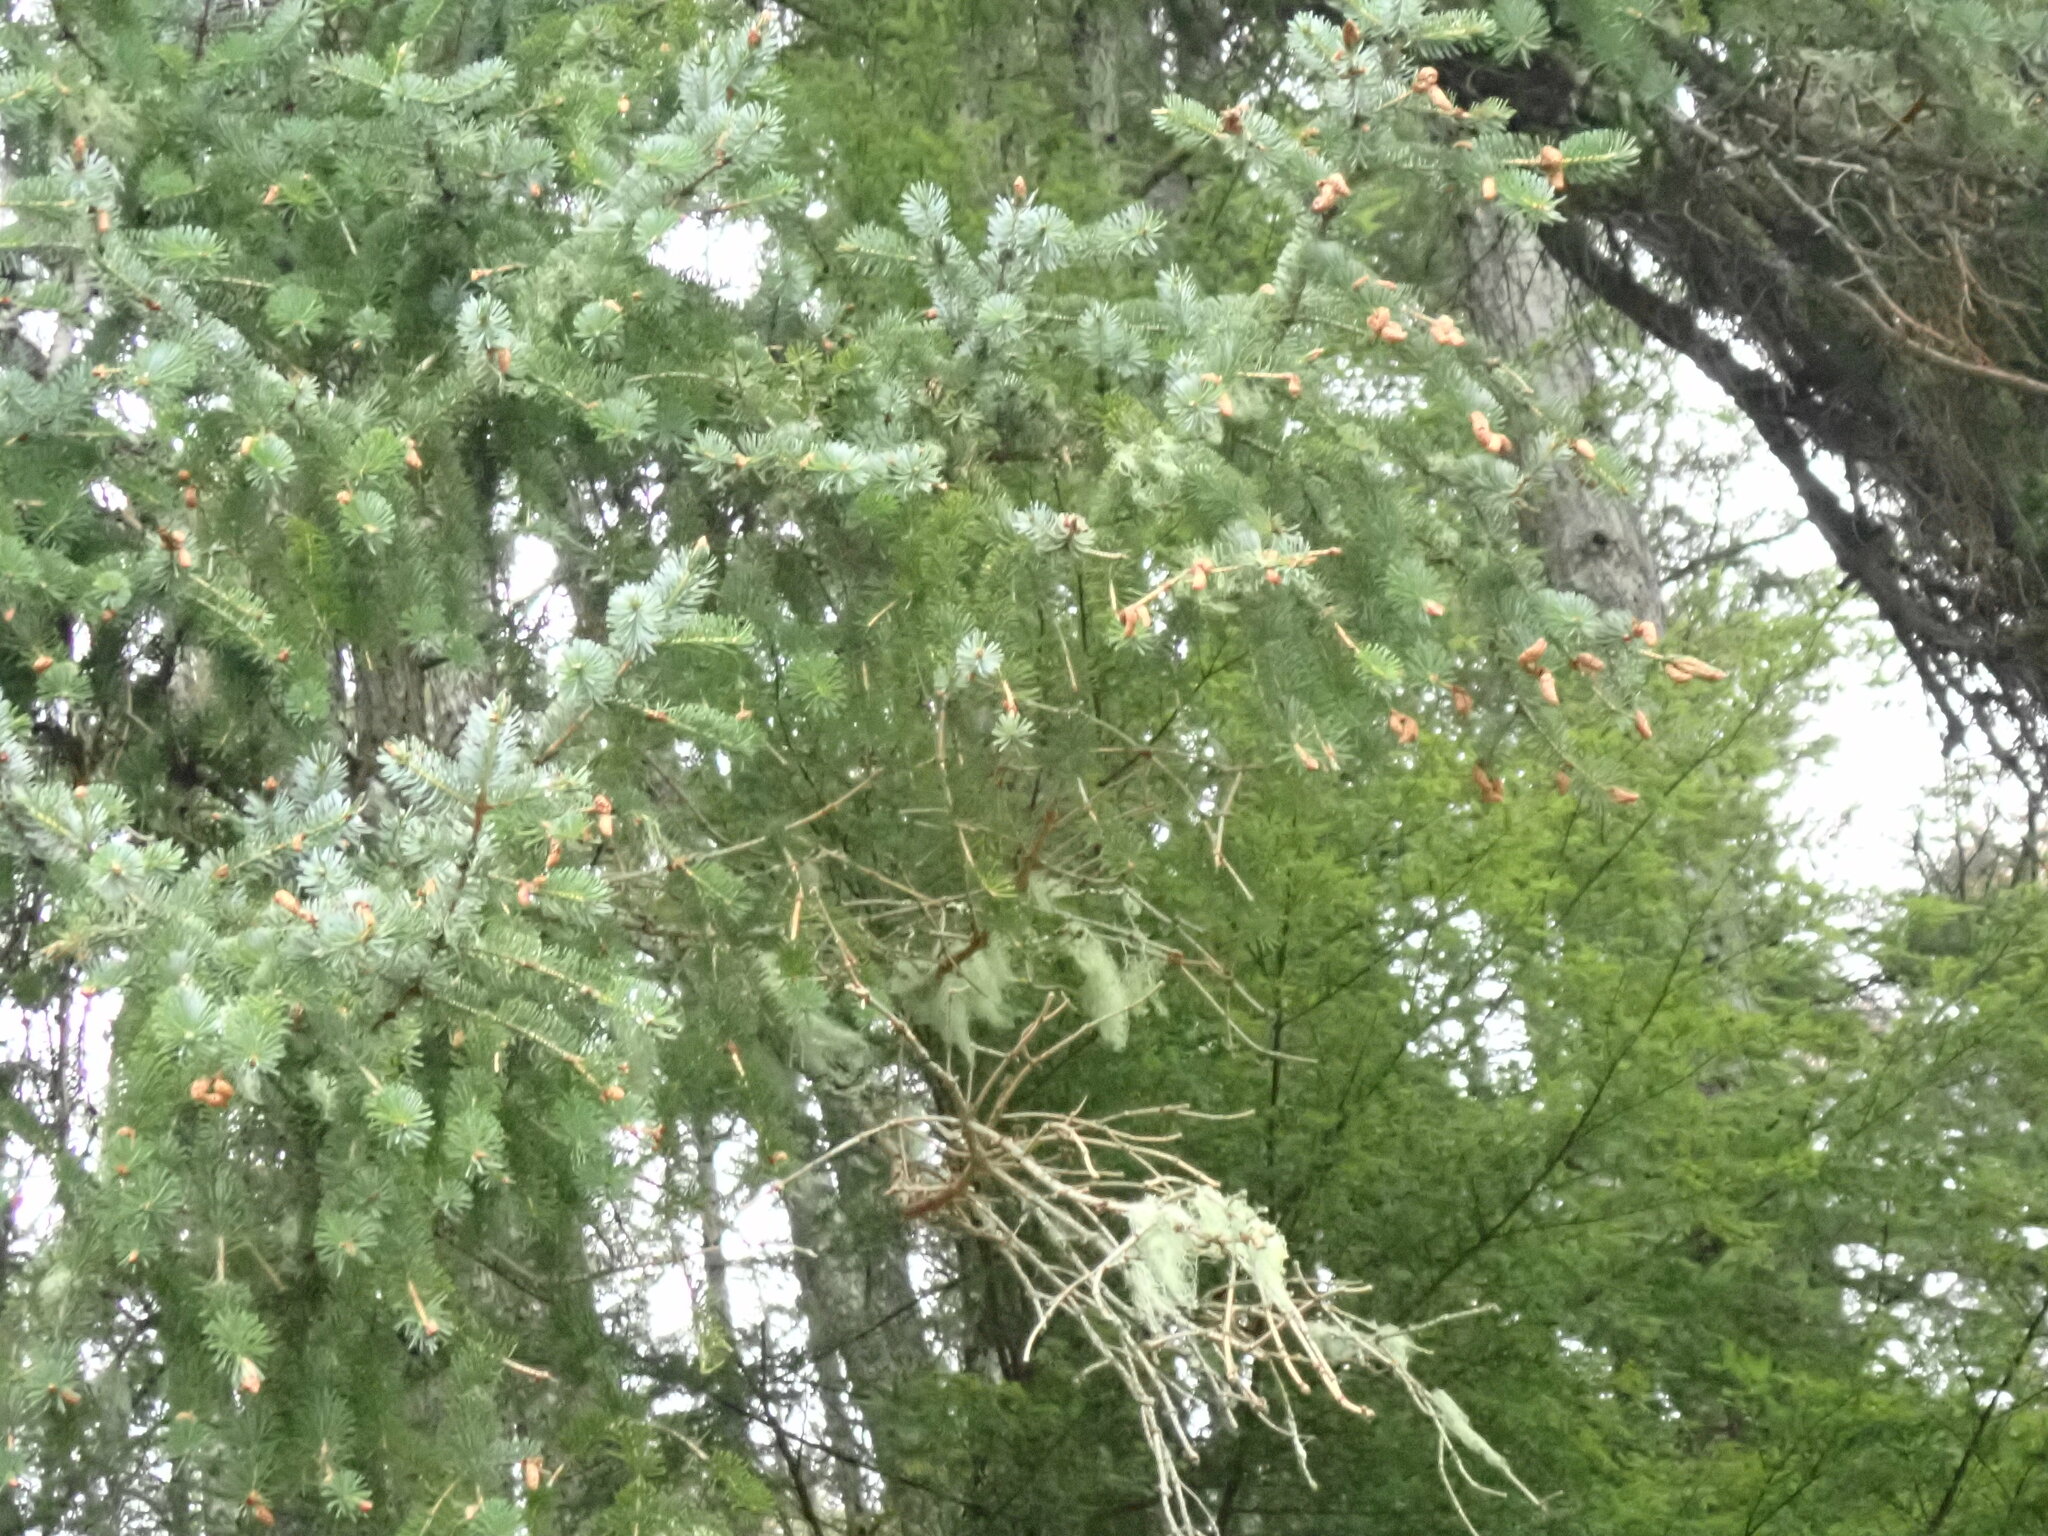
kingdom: Plantae
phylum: Tracheophyta
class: Pinopsida
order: Pinales
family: Pinaceae
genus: Picea
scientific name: Picea sitchensis
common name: Sitka spruce
